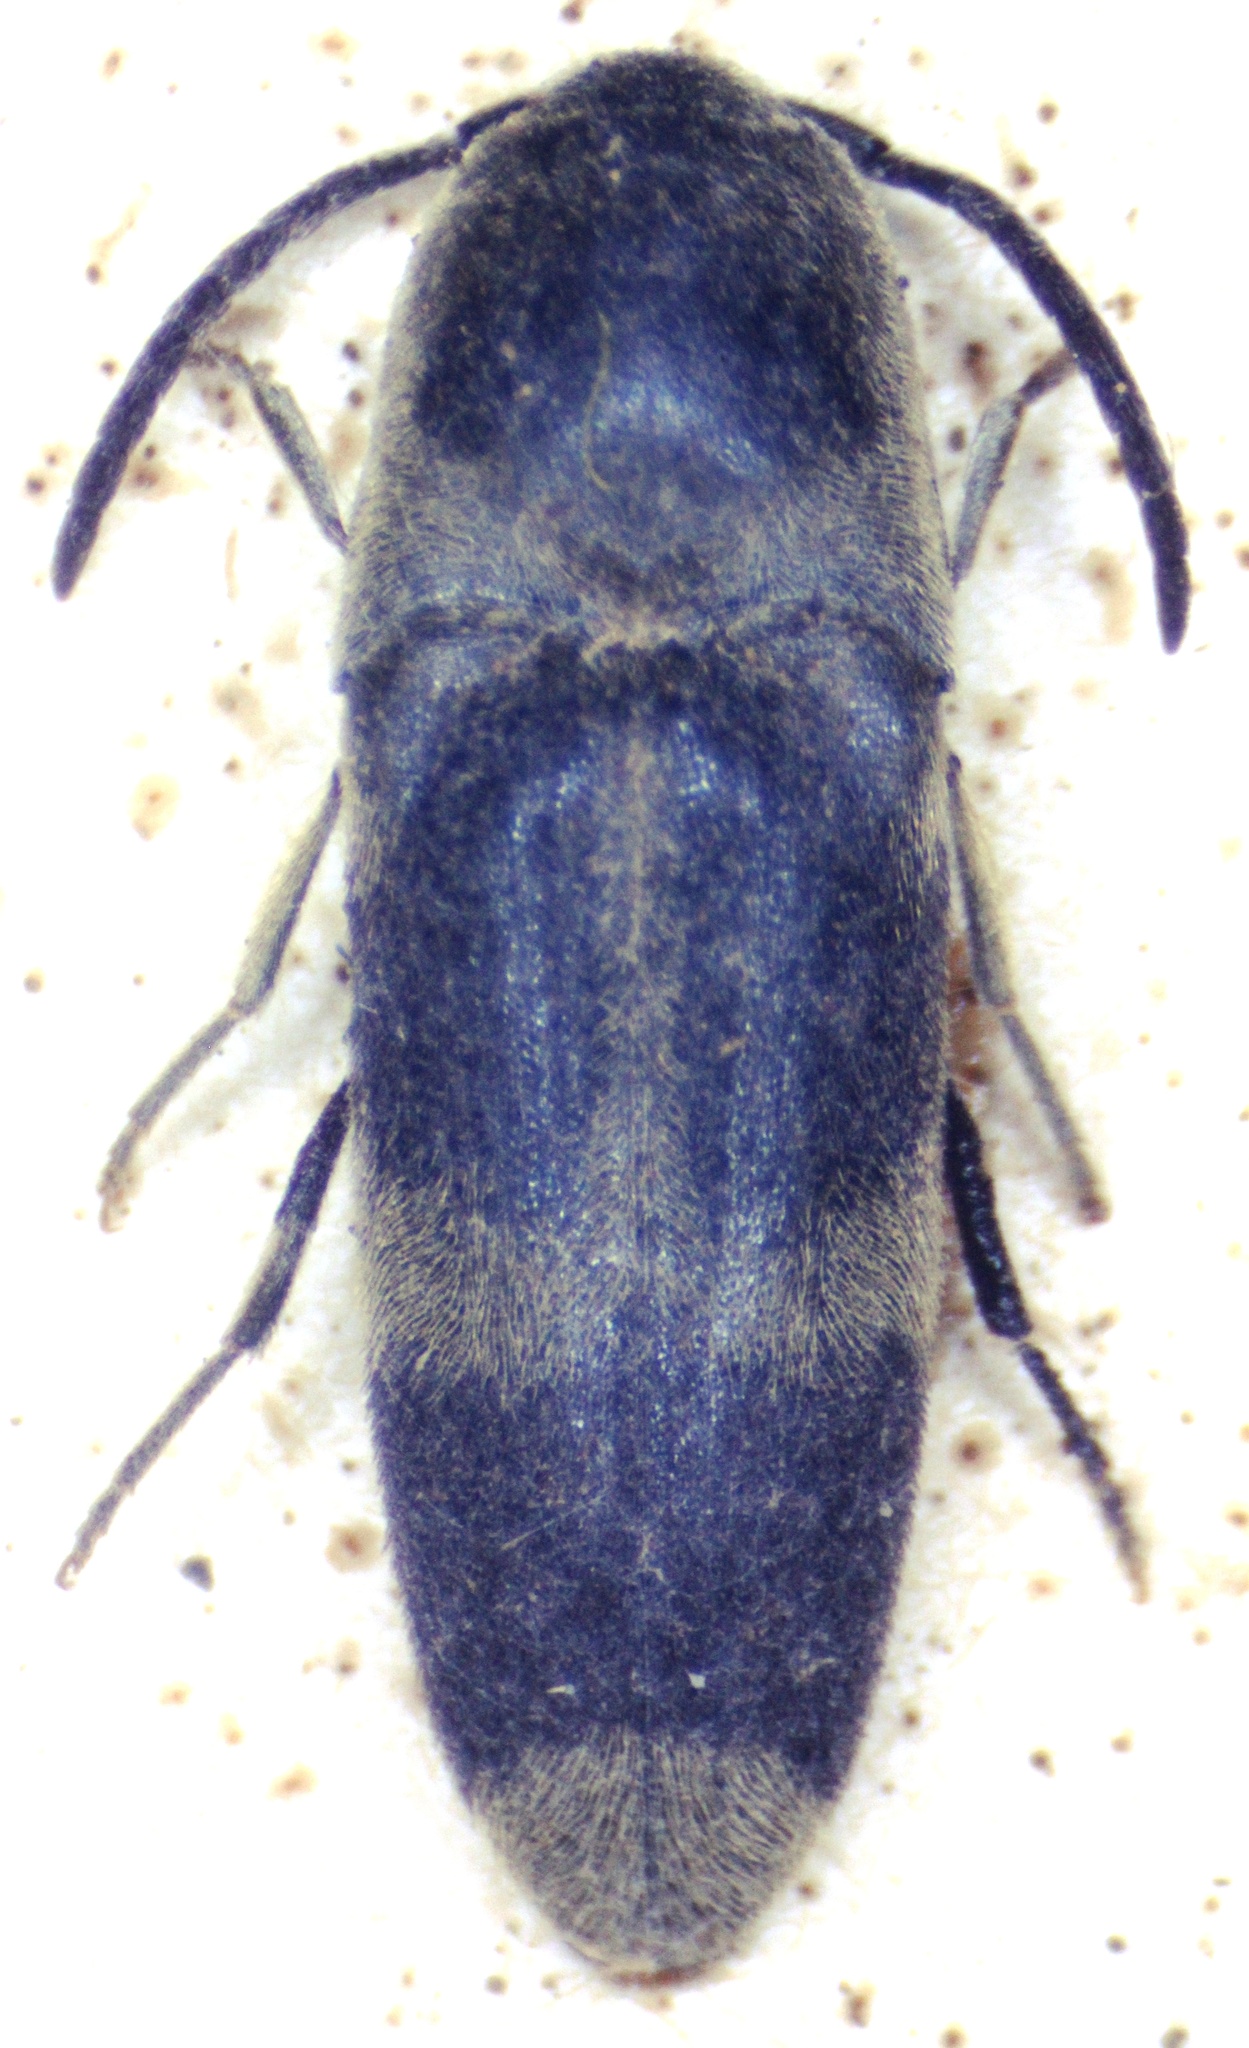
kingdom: Animalia
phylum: Arthropoda
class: Insecta
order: Coleoptera
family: Eucnemidae
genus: Dromaeolus
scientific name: Dromaeolus
